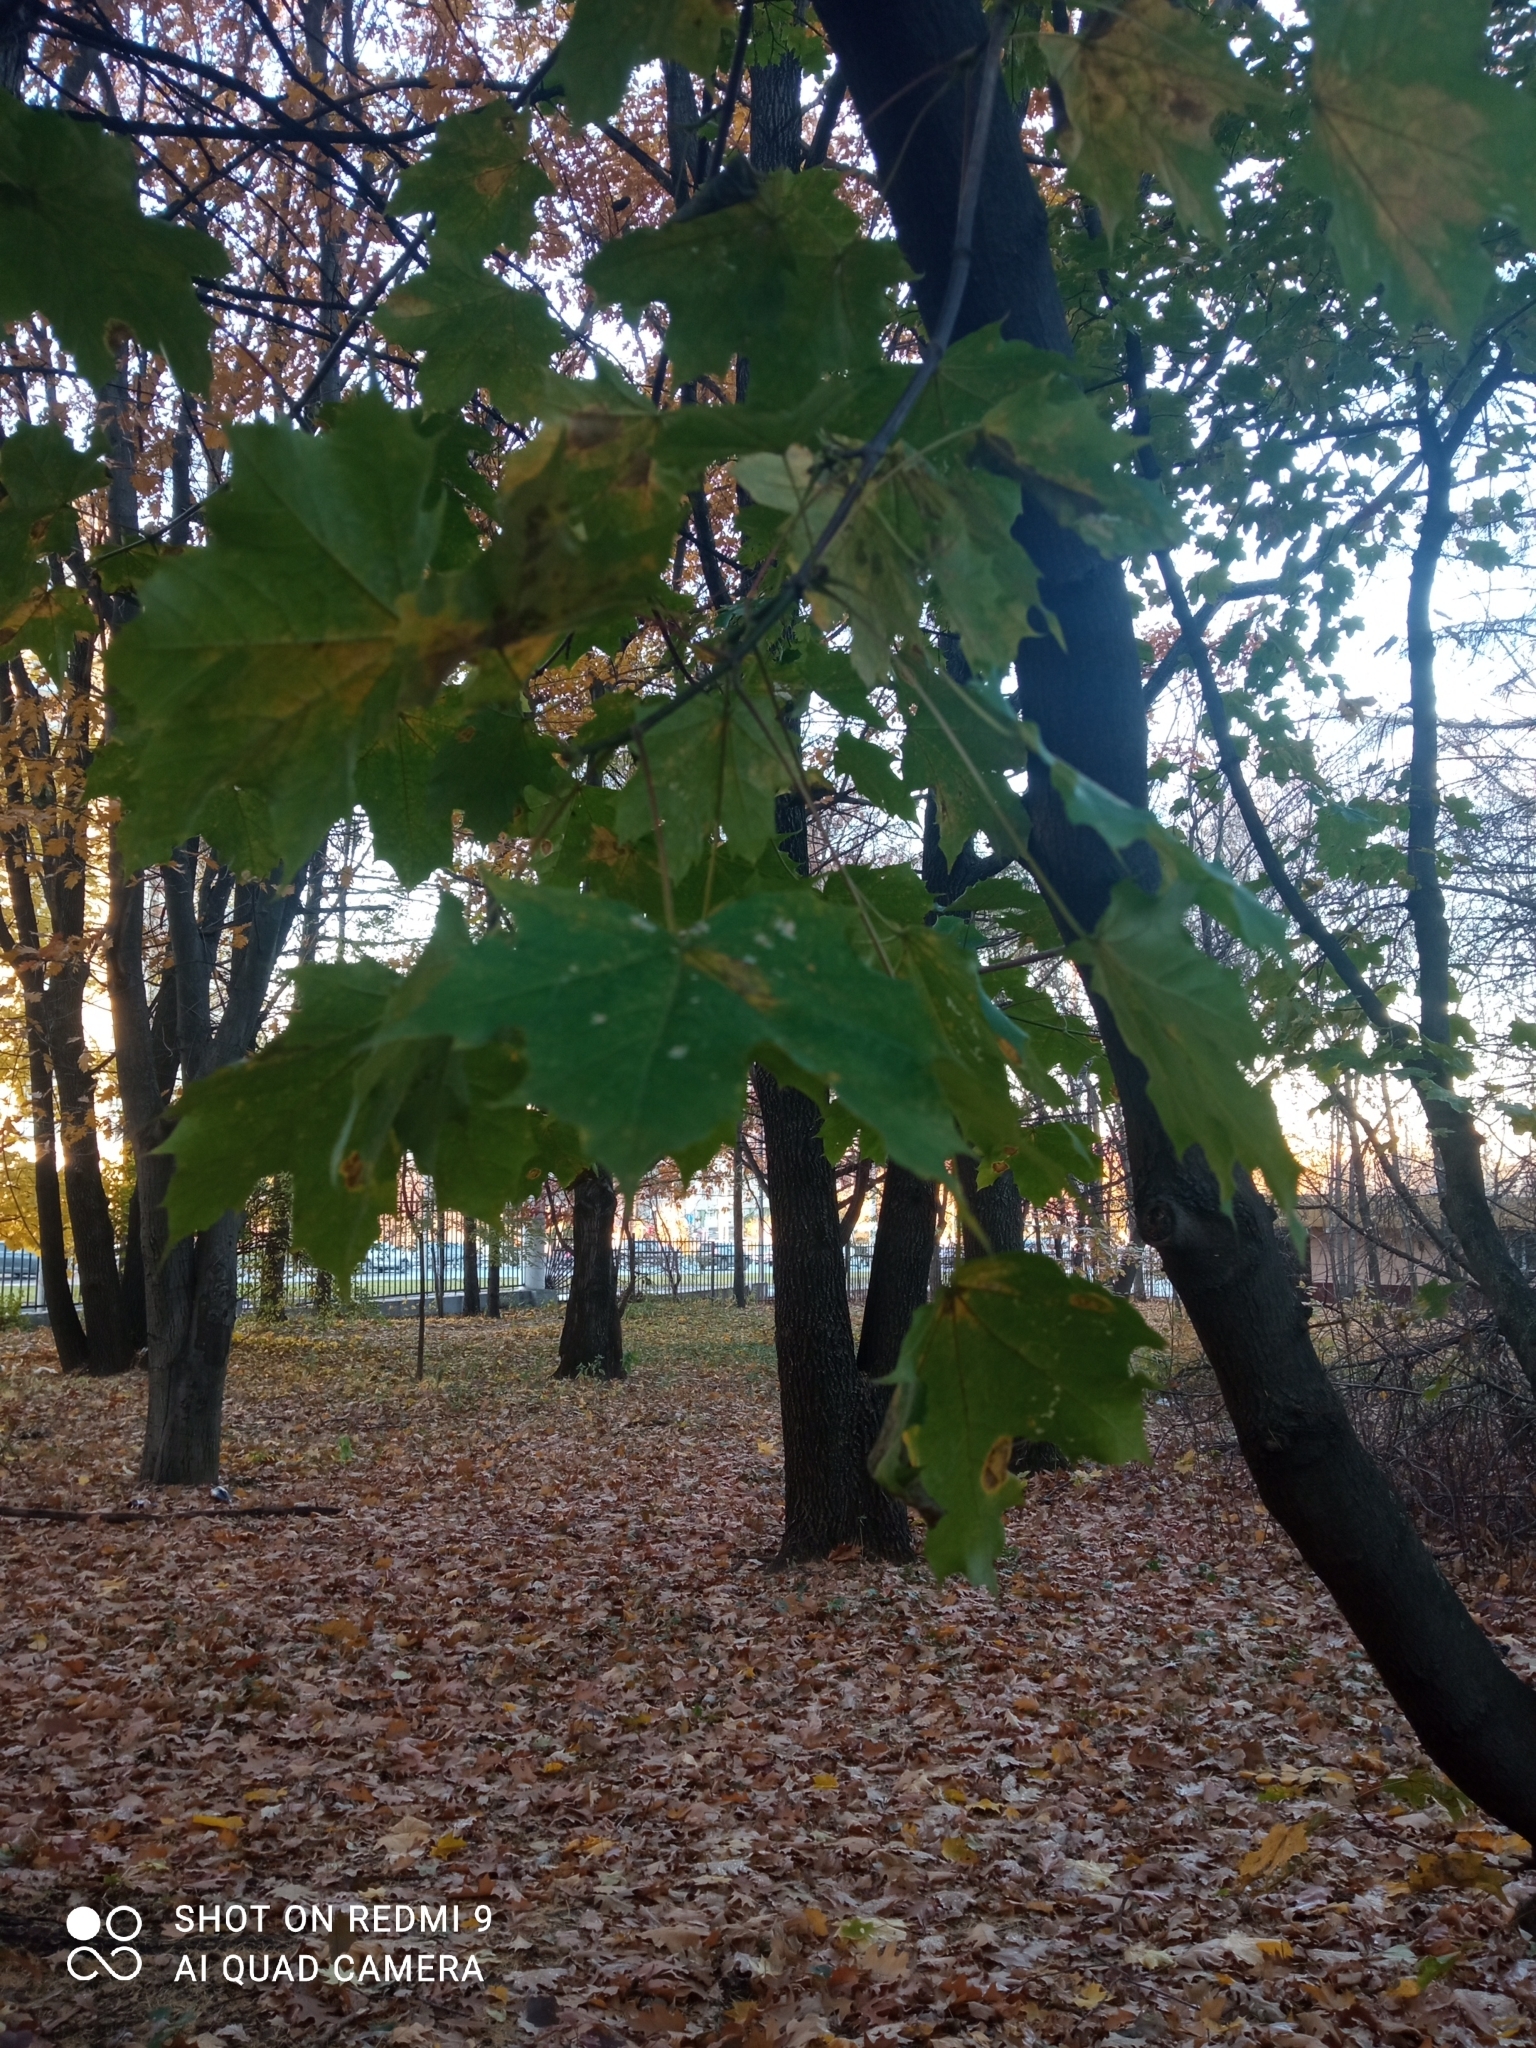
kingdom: Plantae
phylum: Tracheophyta
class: Magnoliopsida
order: Sapindales
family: Sapindaceae
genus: Acer
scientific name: Acer platanoides
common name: Norway maple
